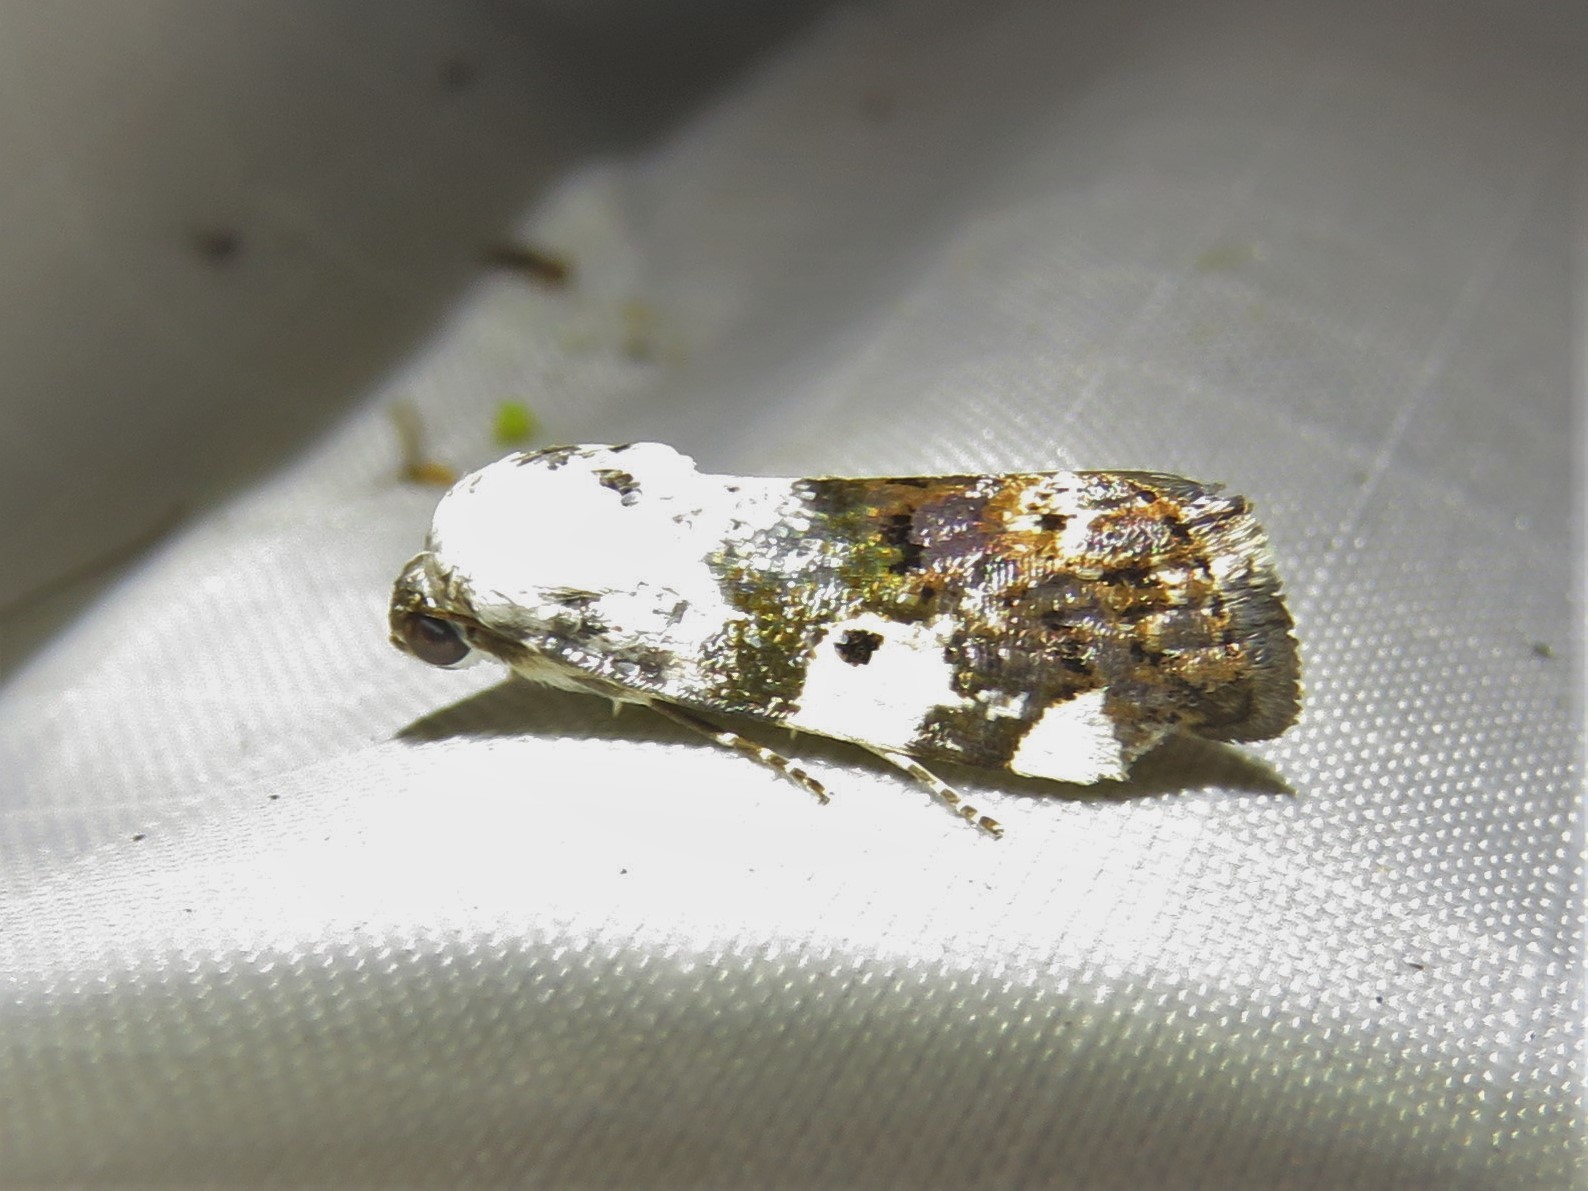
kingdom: Animalia
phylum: Arthropoda
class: Insecta
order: Lepidoptera
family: Noctuidae
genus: Acontia
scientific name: Acontia aprica
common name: Nun
